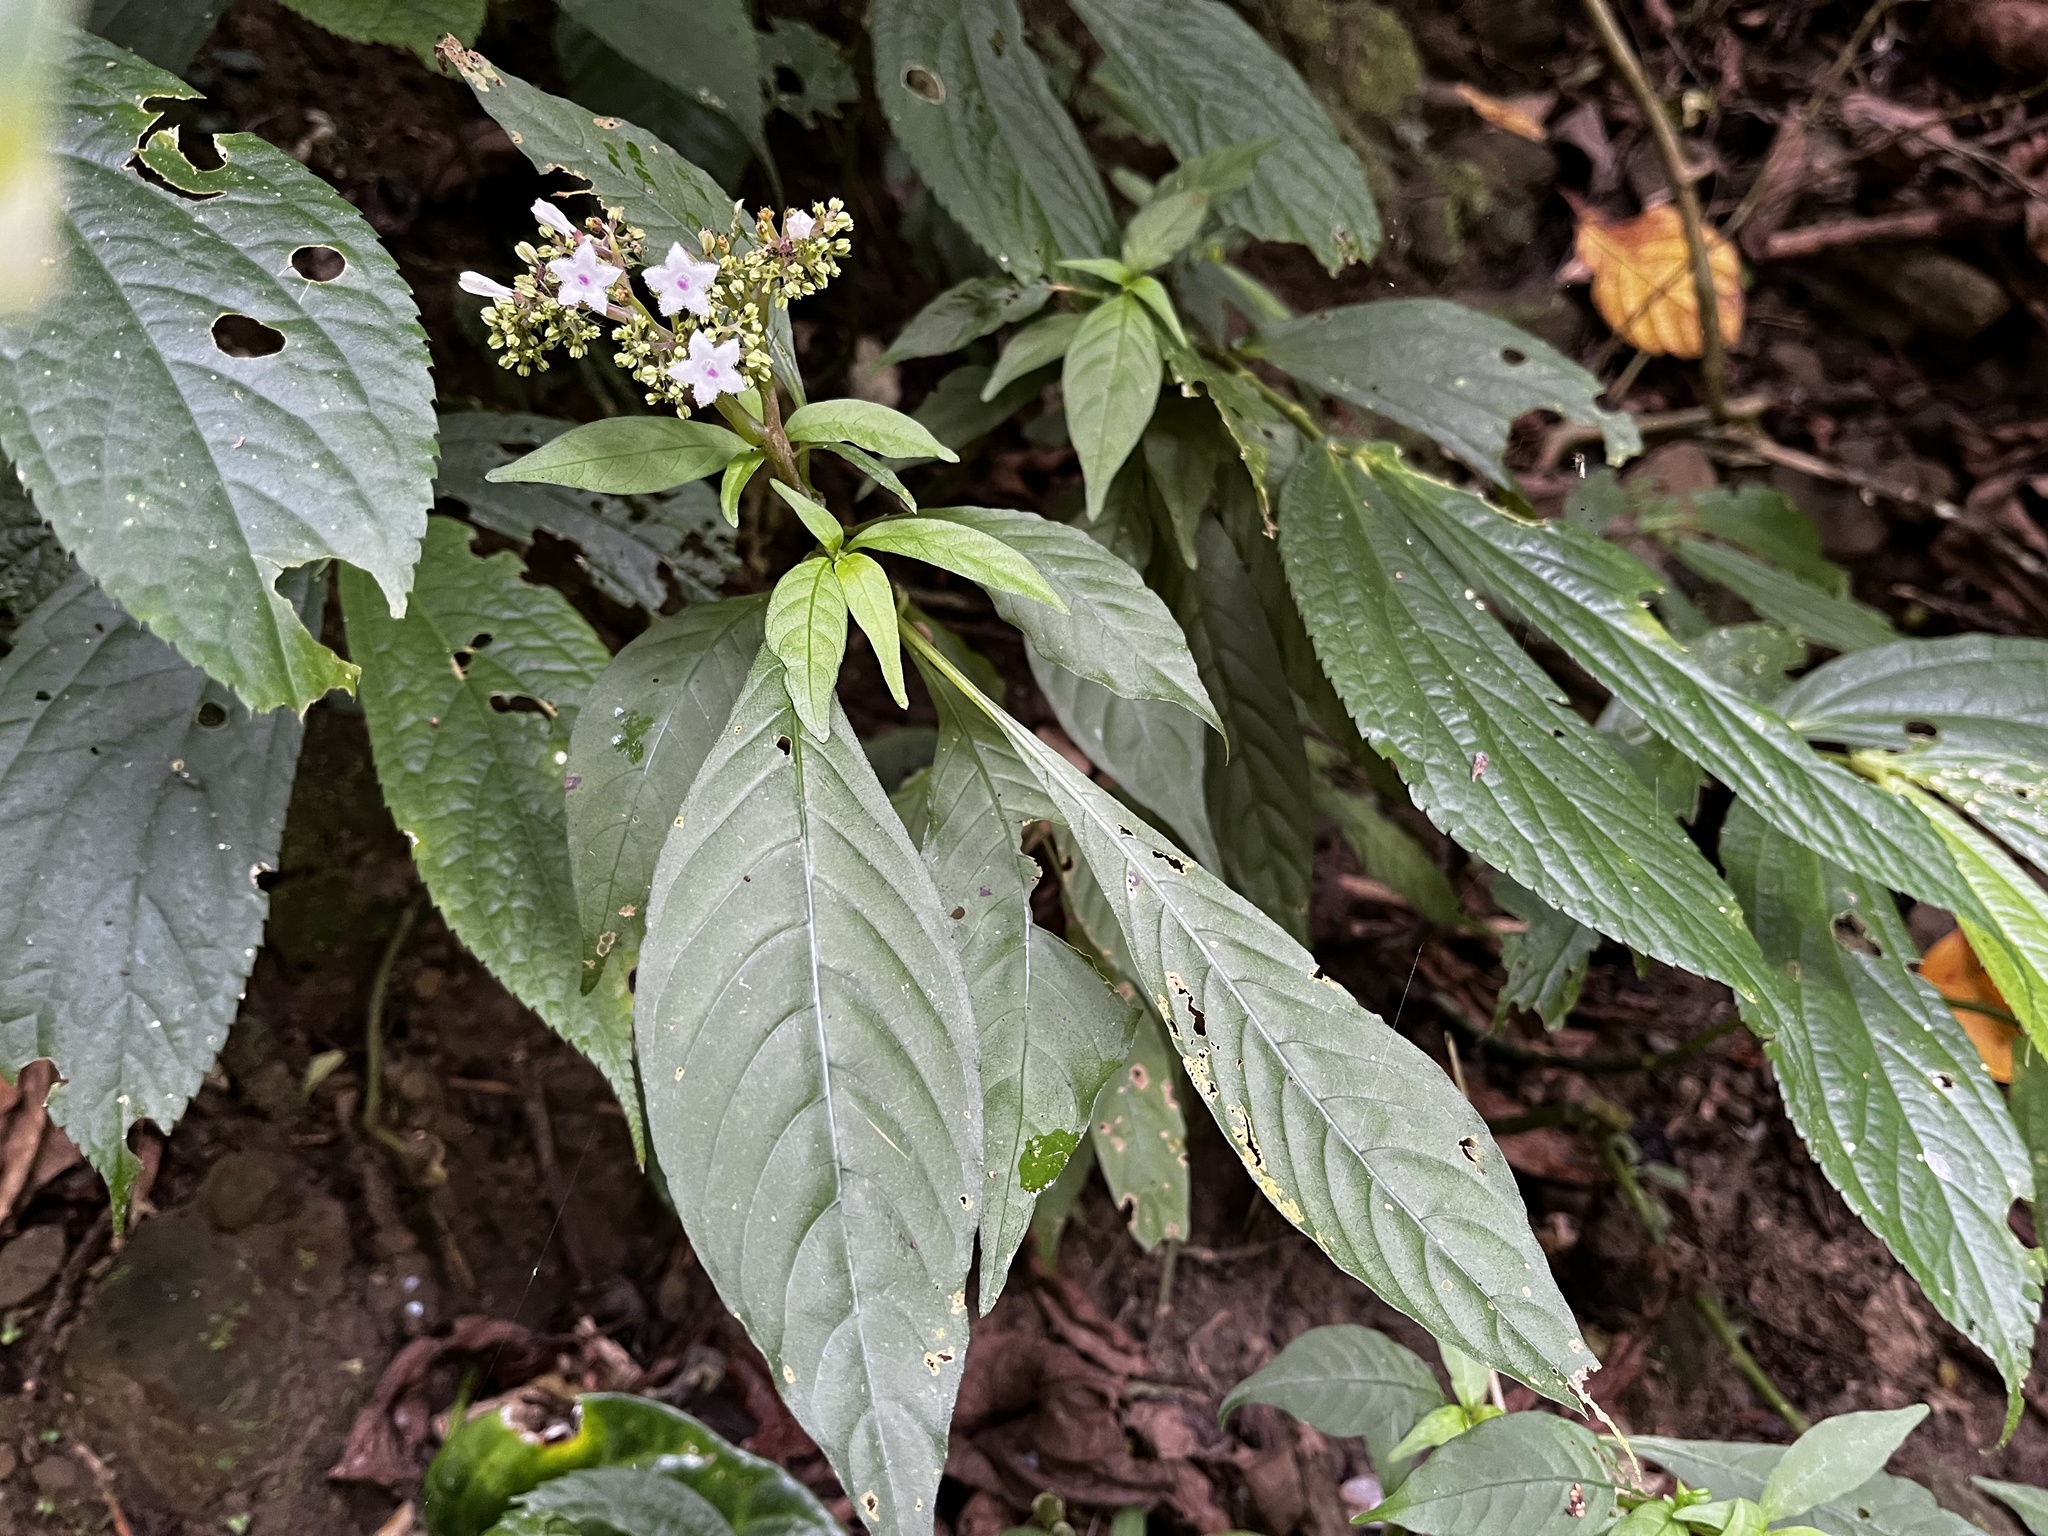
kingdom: Plantae
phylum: Tracheophyta
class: Magnoliopsida
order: Gentianales
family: Rubiaceae
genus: Ophiorrhiza
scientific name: Ophiorrhiza japonica
